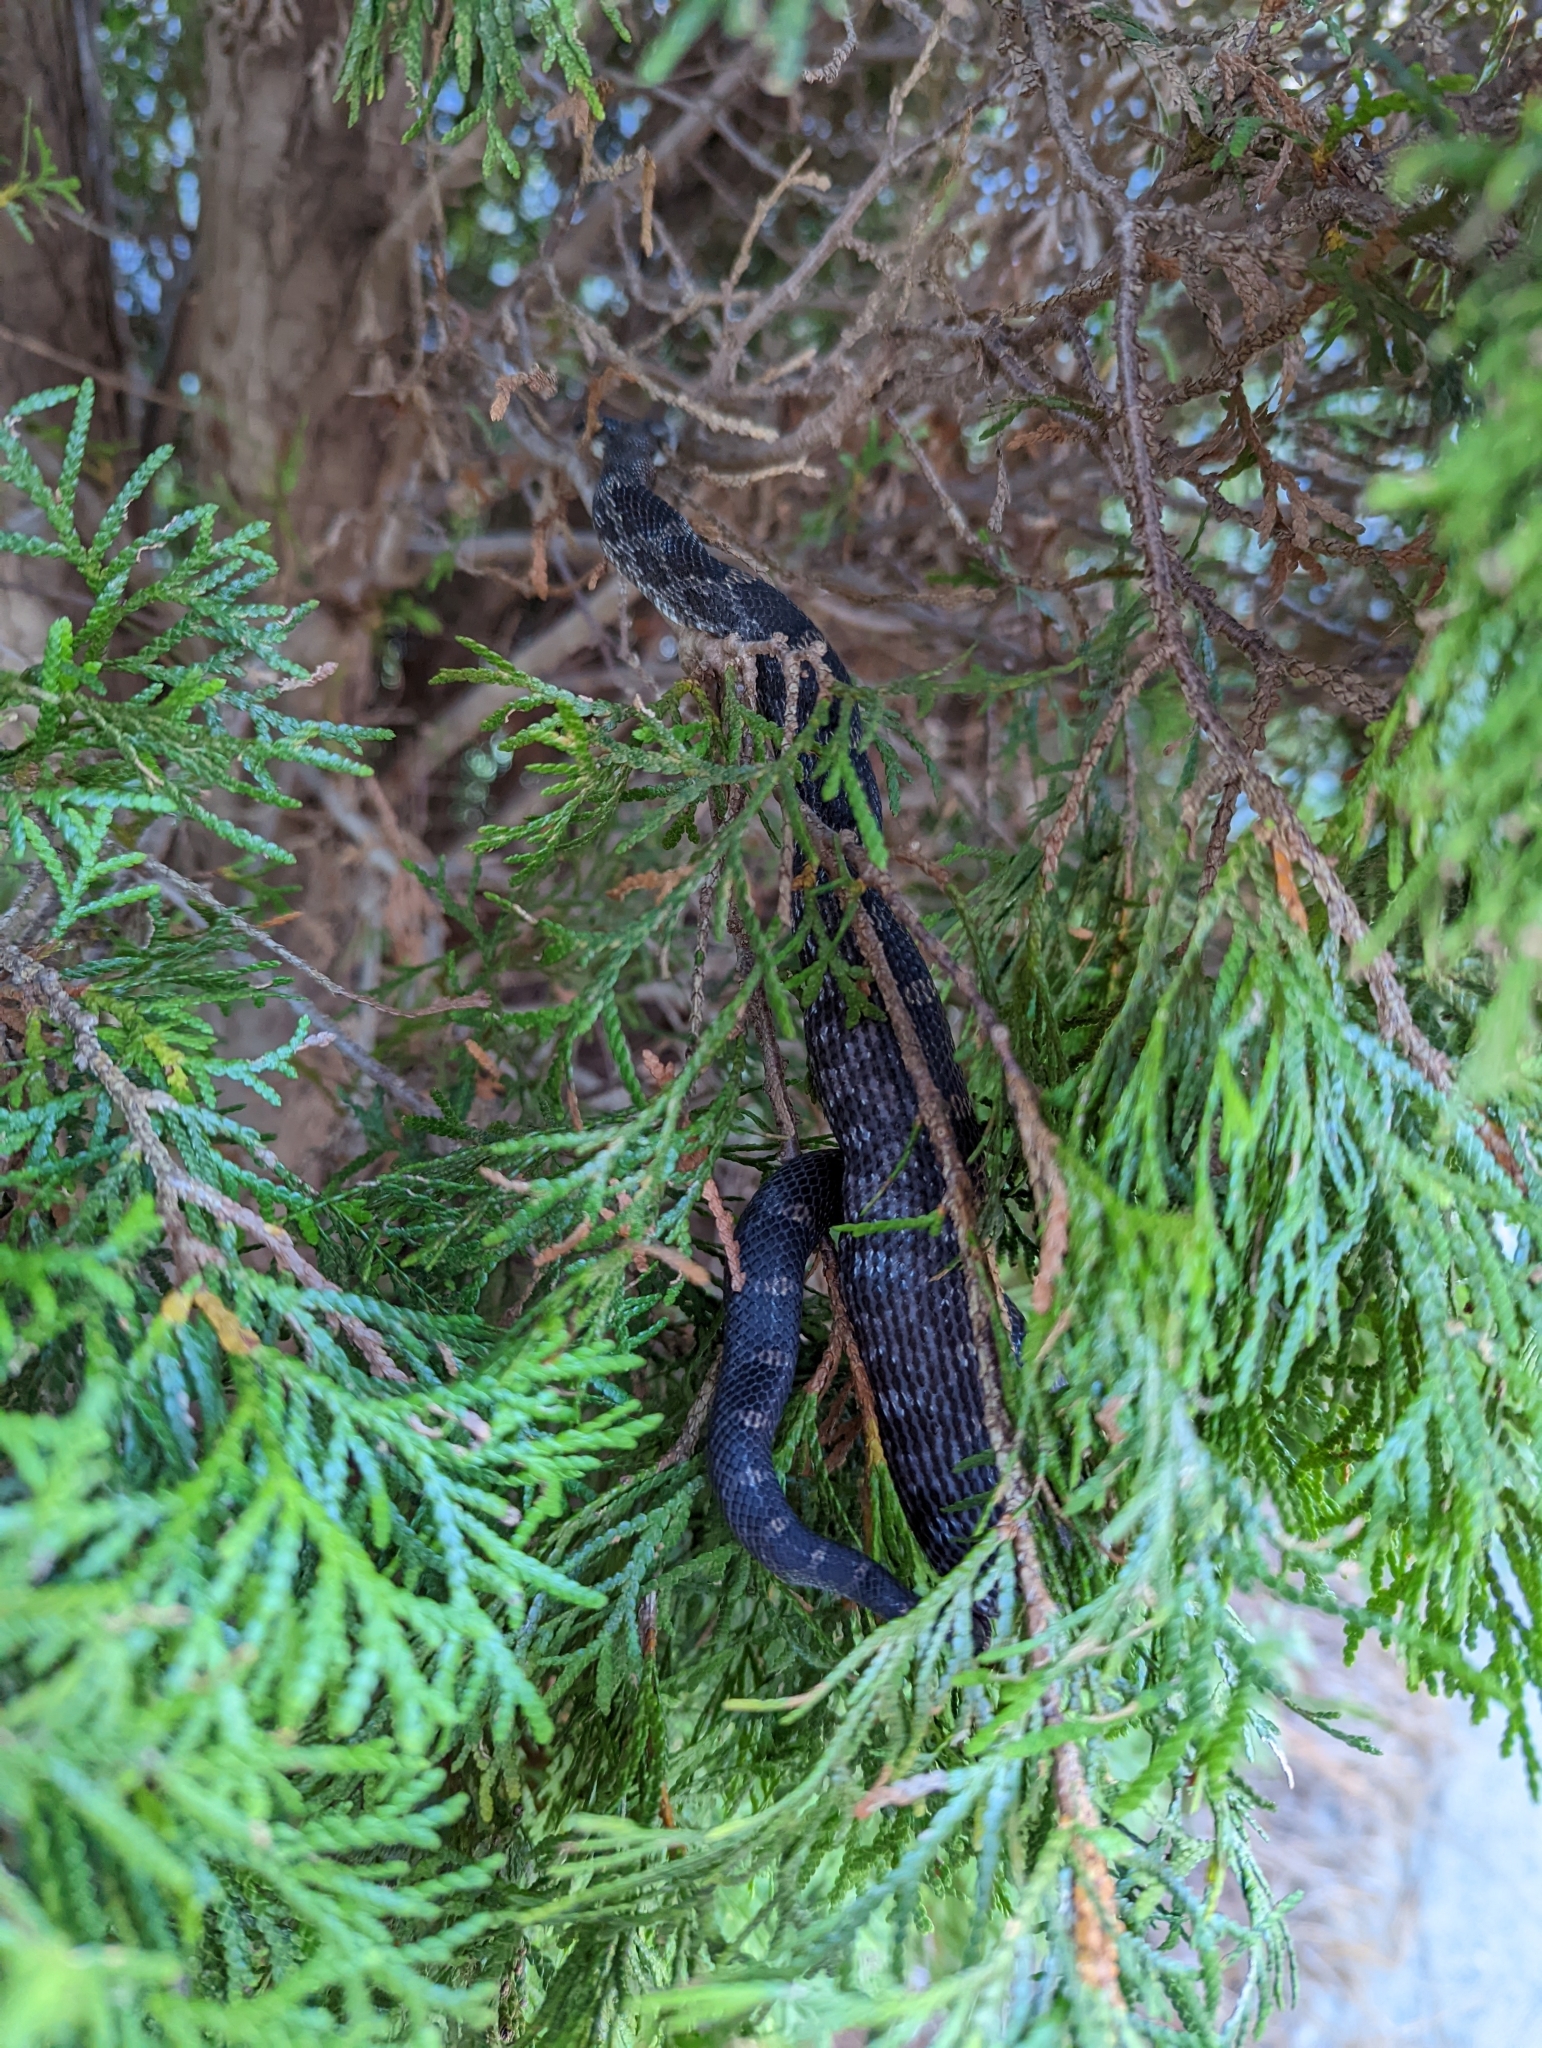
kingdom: Animalia
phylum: Chordata
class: Squamata
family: Colubridae
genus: Pantherophis
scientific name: Pantherophis
